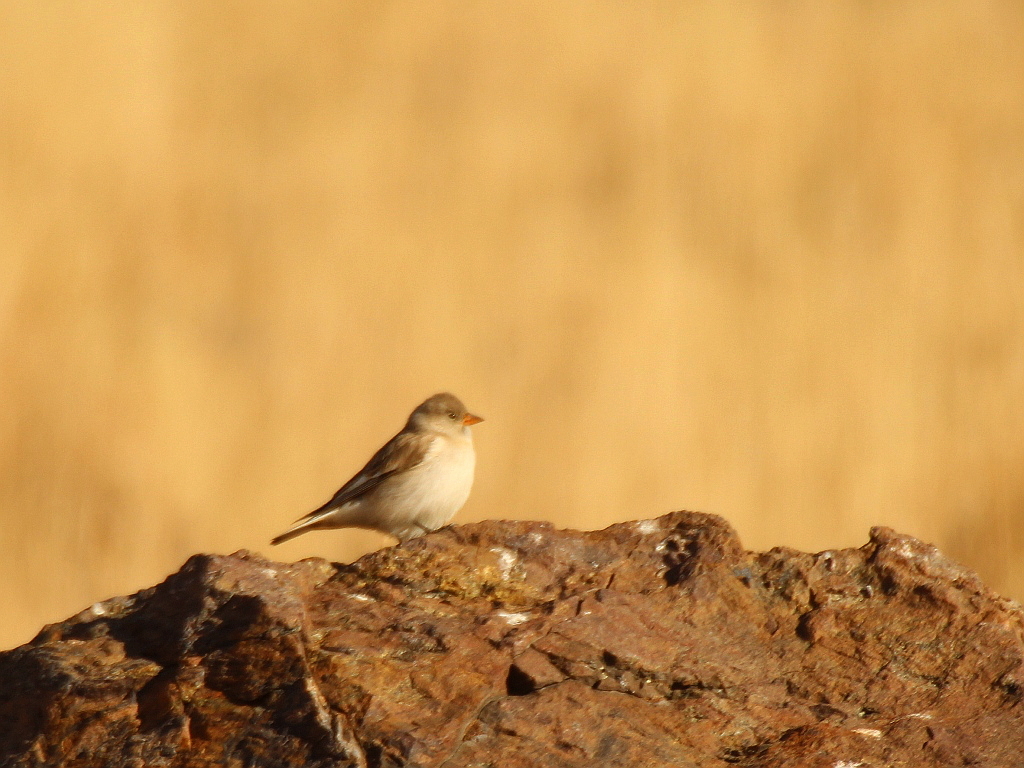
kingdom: Animalia
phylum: Chordata
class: Aves
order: Passeriformes
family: Passeridae
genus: Montifringilla
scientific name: Montifringilla nivalis
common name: White-winged snowfinch
